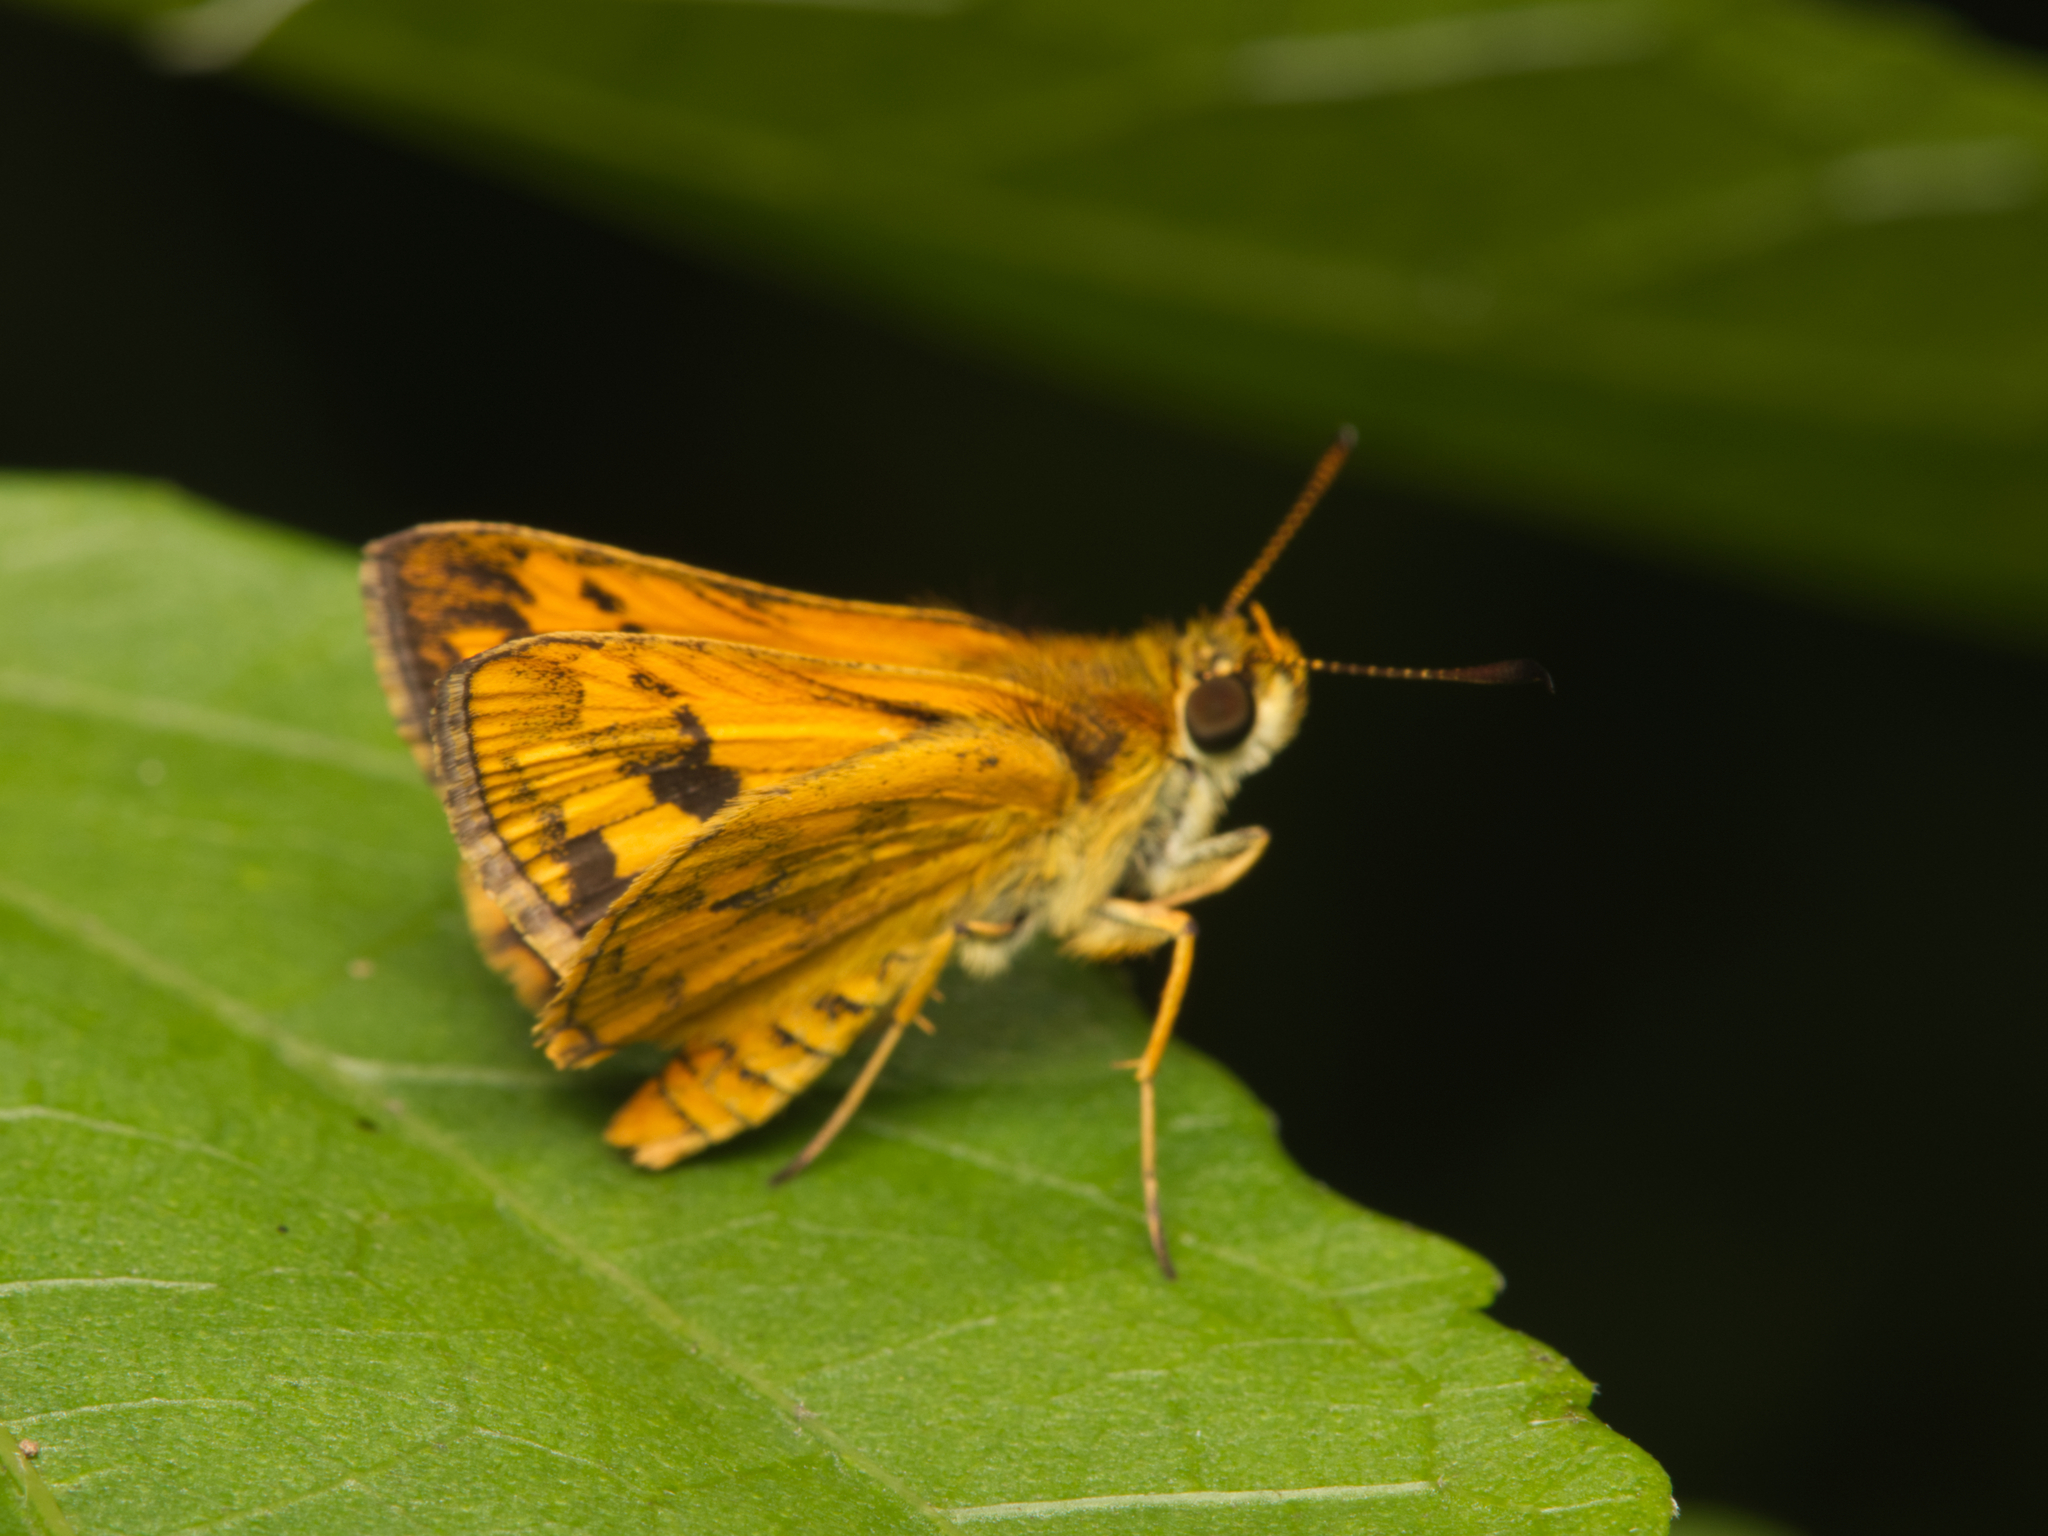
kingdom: Animalia
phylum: Arthropoda
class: Insecta
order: Lepidoptera
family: Hesperiidae
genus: Suniana
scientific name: Suniana sunias
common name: Wide-brand grass-dart
